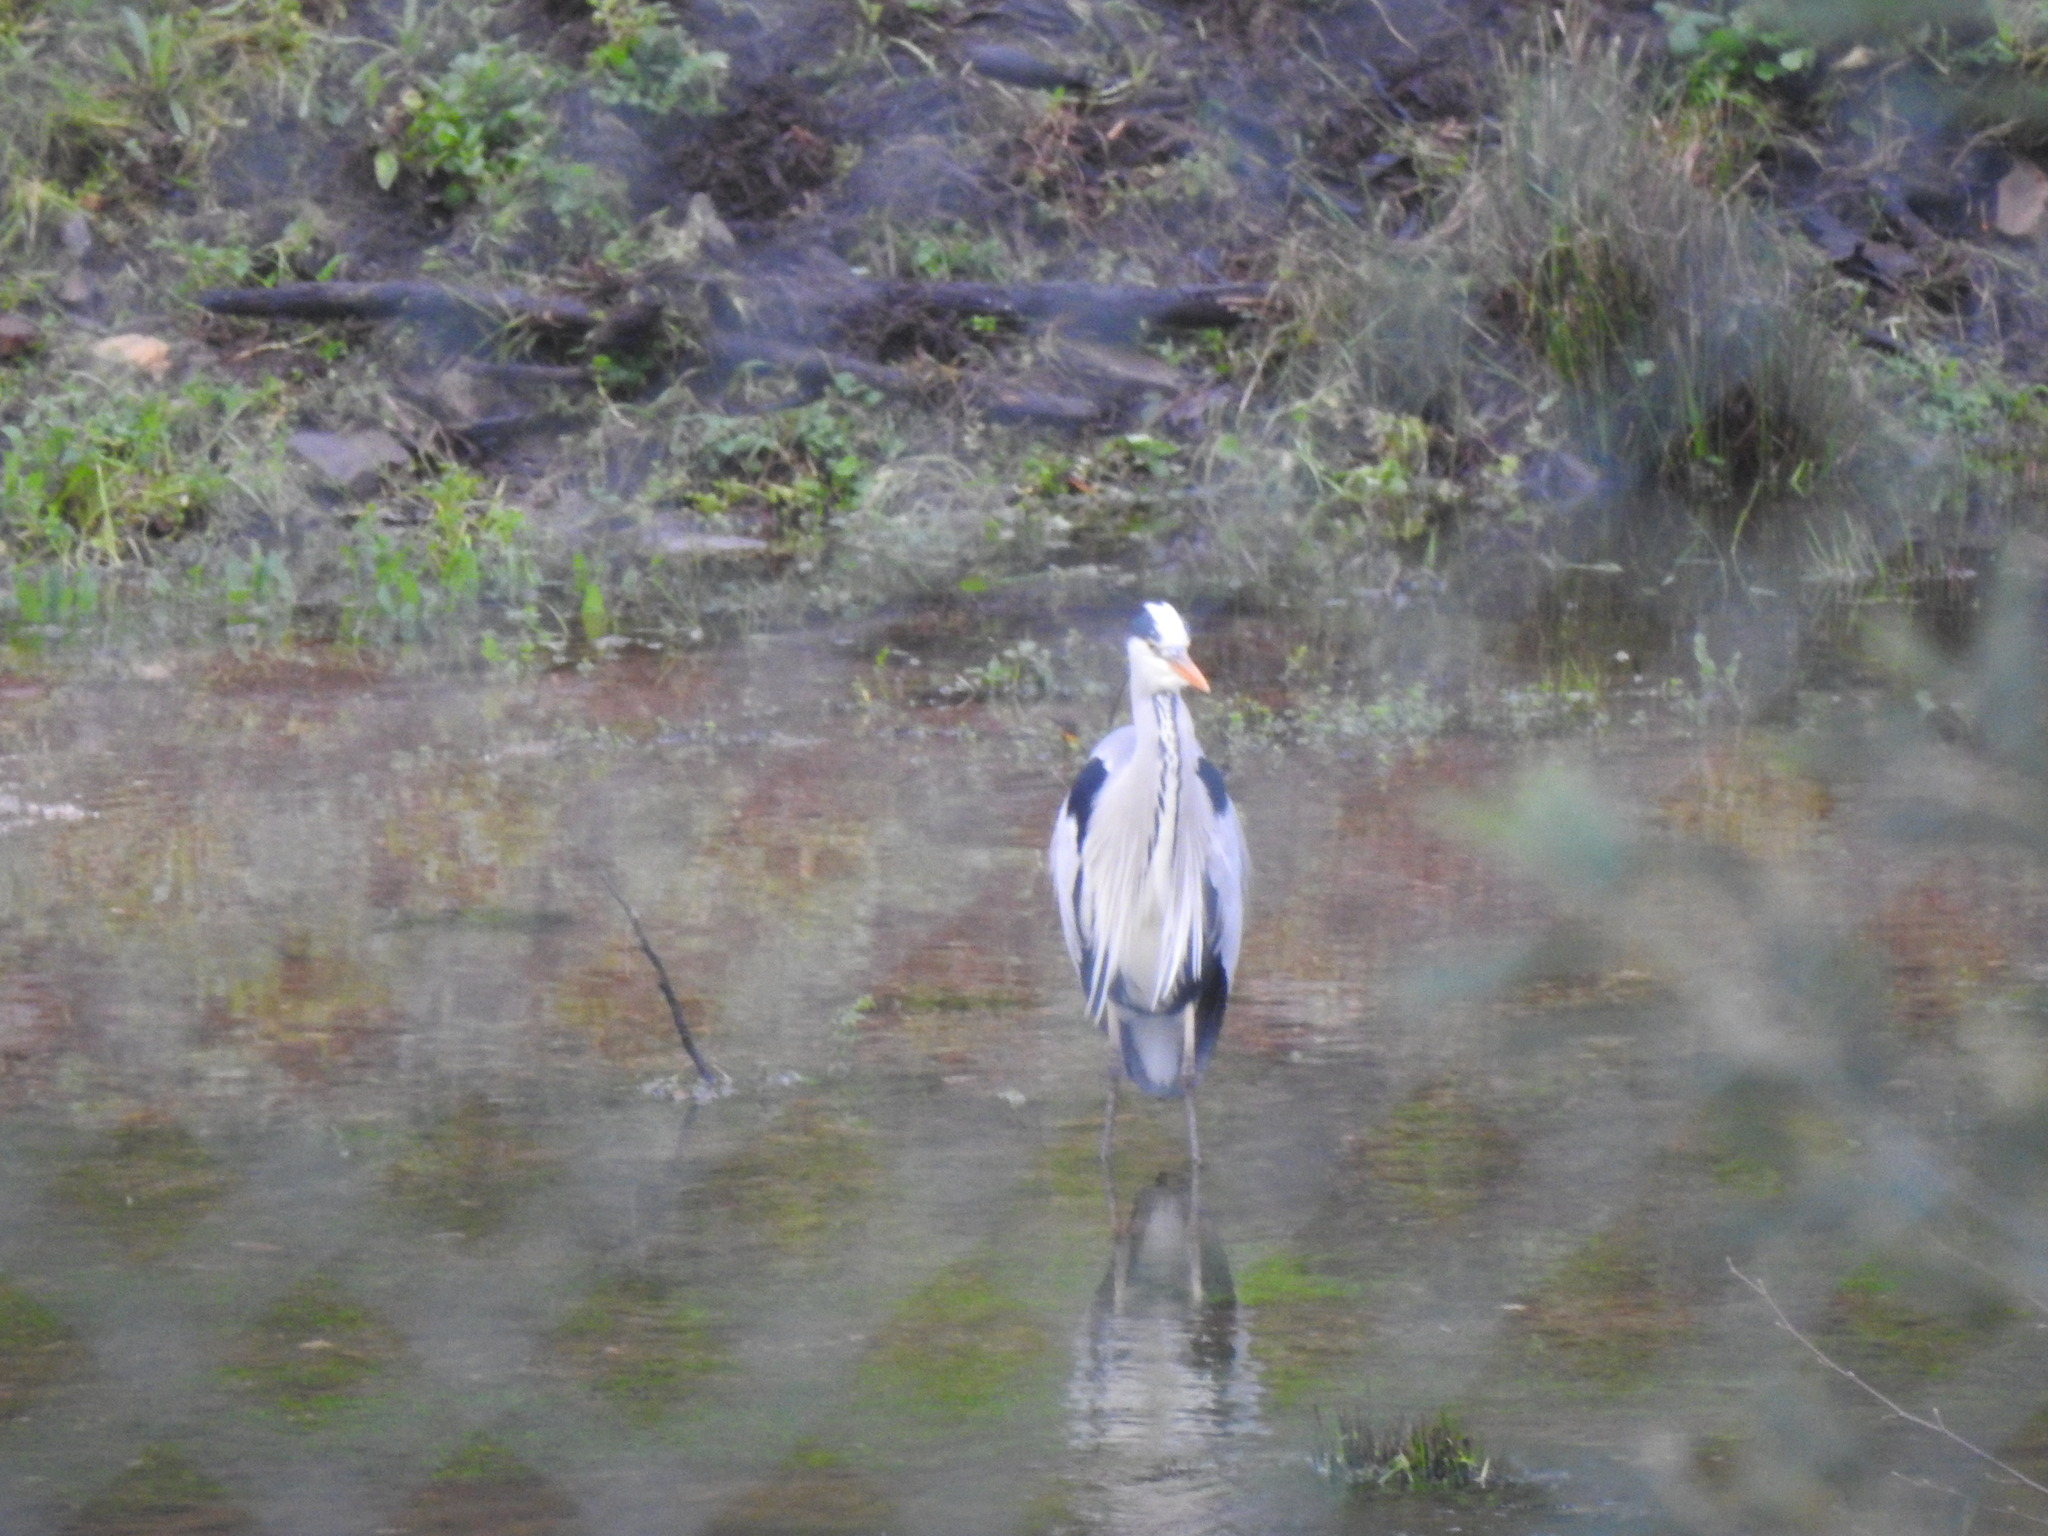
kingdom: Animalia
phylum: Chordata
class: Aves
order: Pelecaniformes
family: Ardeidae
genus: Ardea
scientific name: Ardea cinerea
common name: Grey heron
